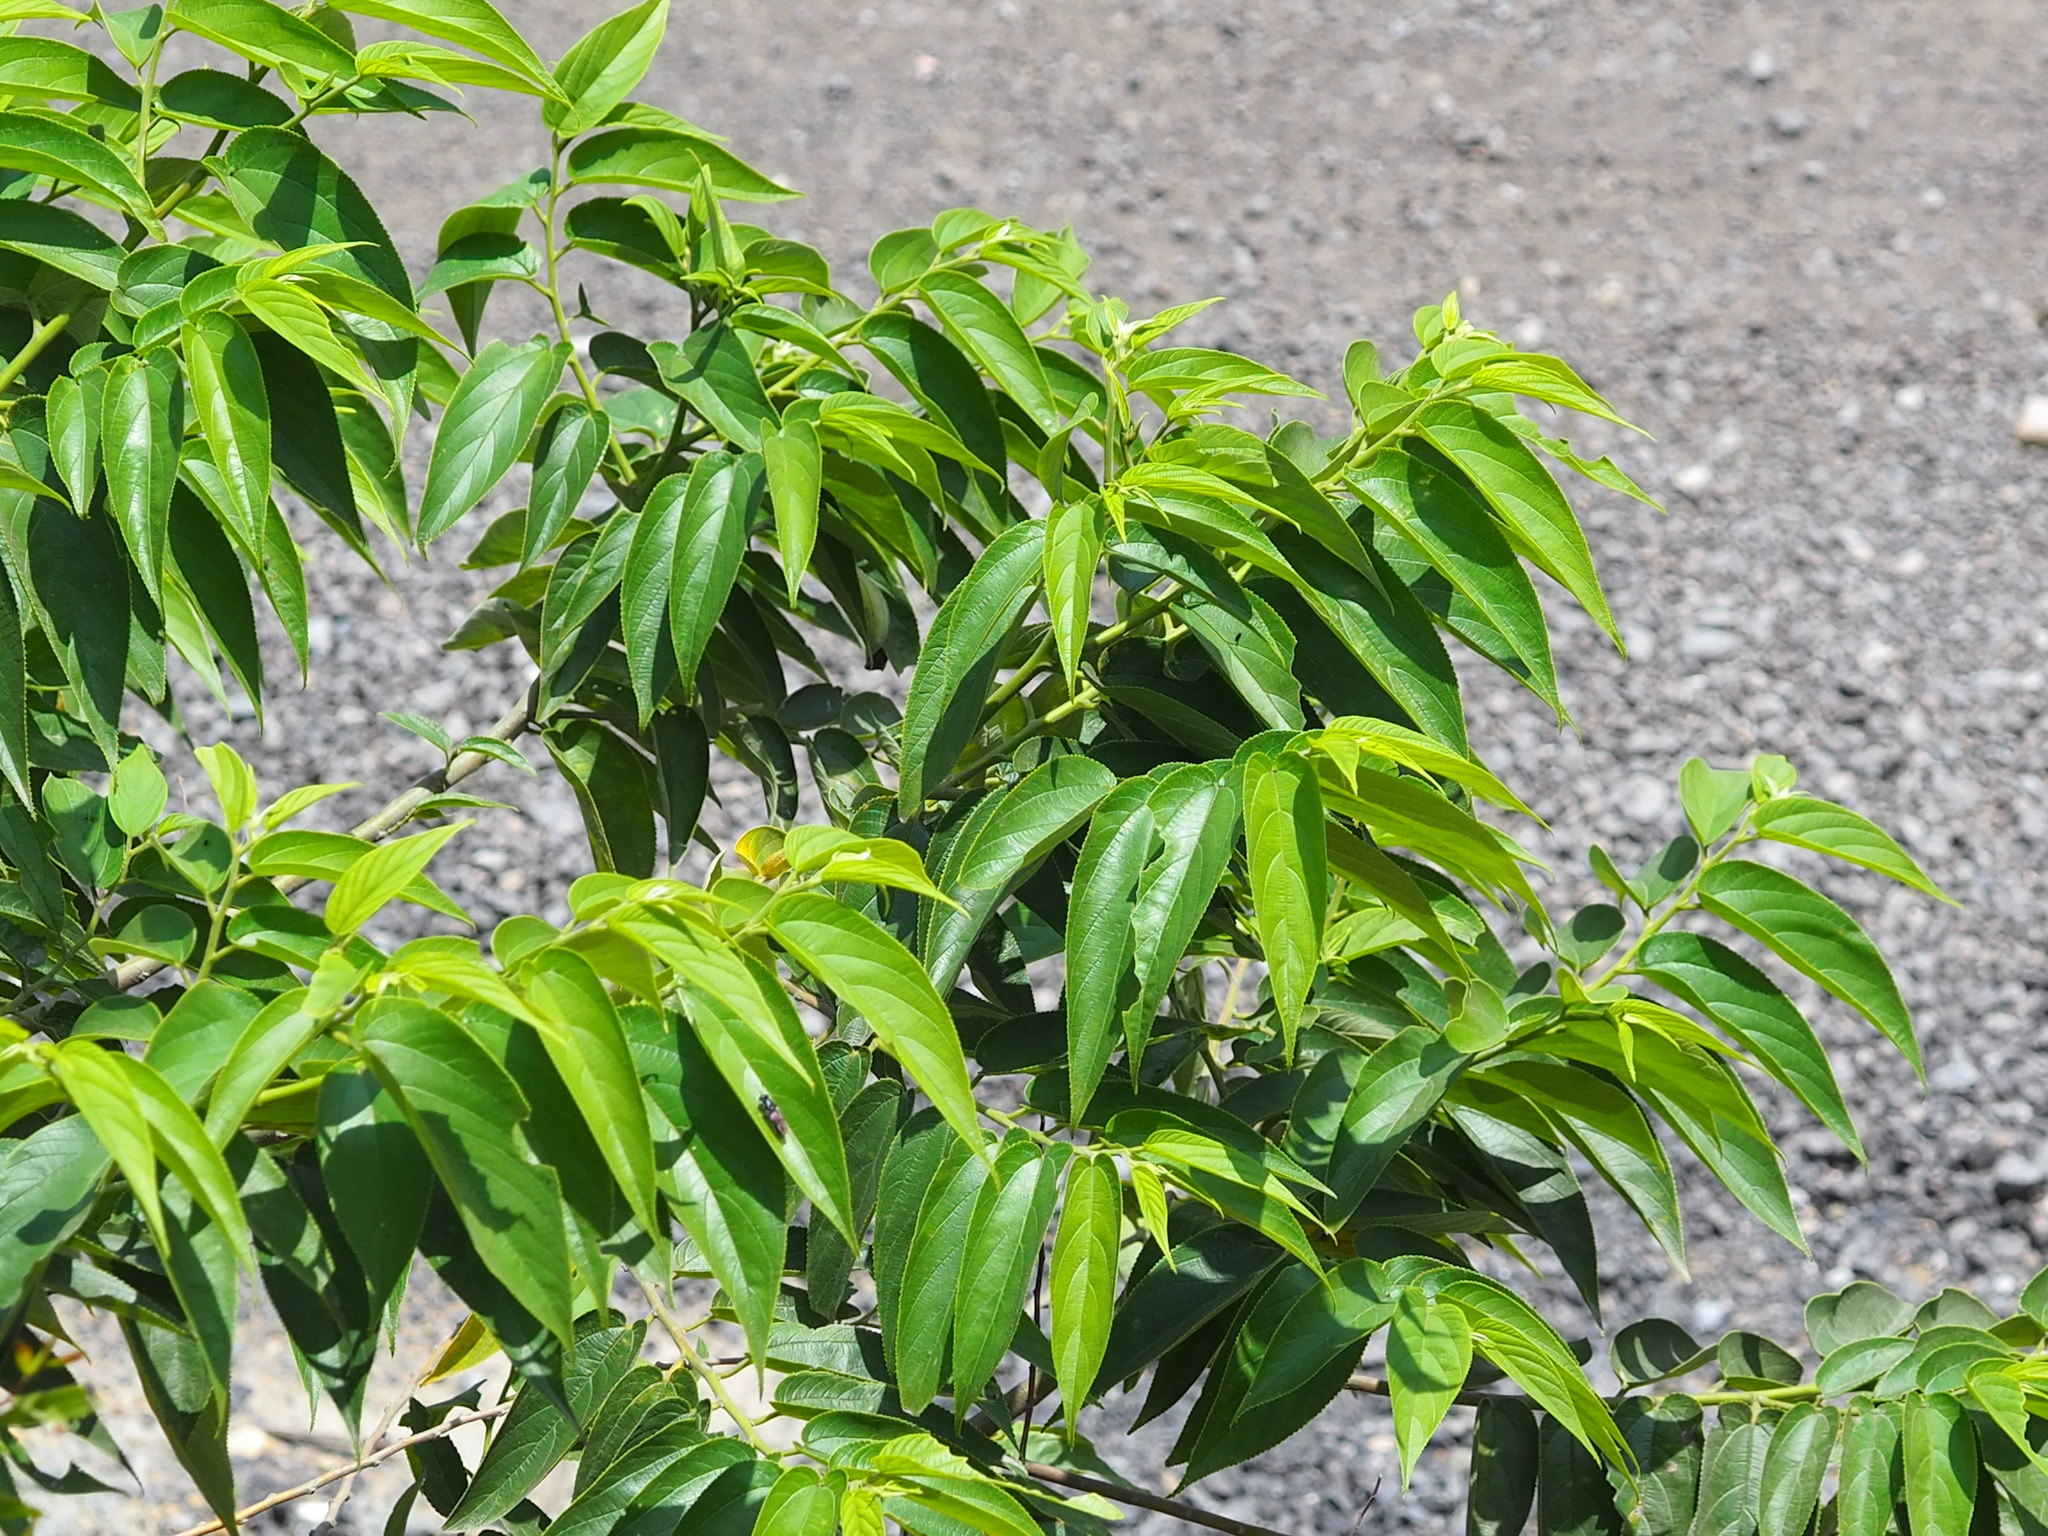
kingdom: Plantae
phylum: Tracheophyta
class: Magnoliopsida
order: Rosales
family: Cannabaceae
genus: Trema
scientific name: Trema orientale
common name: Indian charcoal tree
